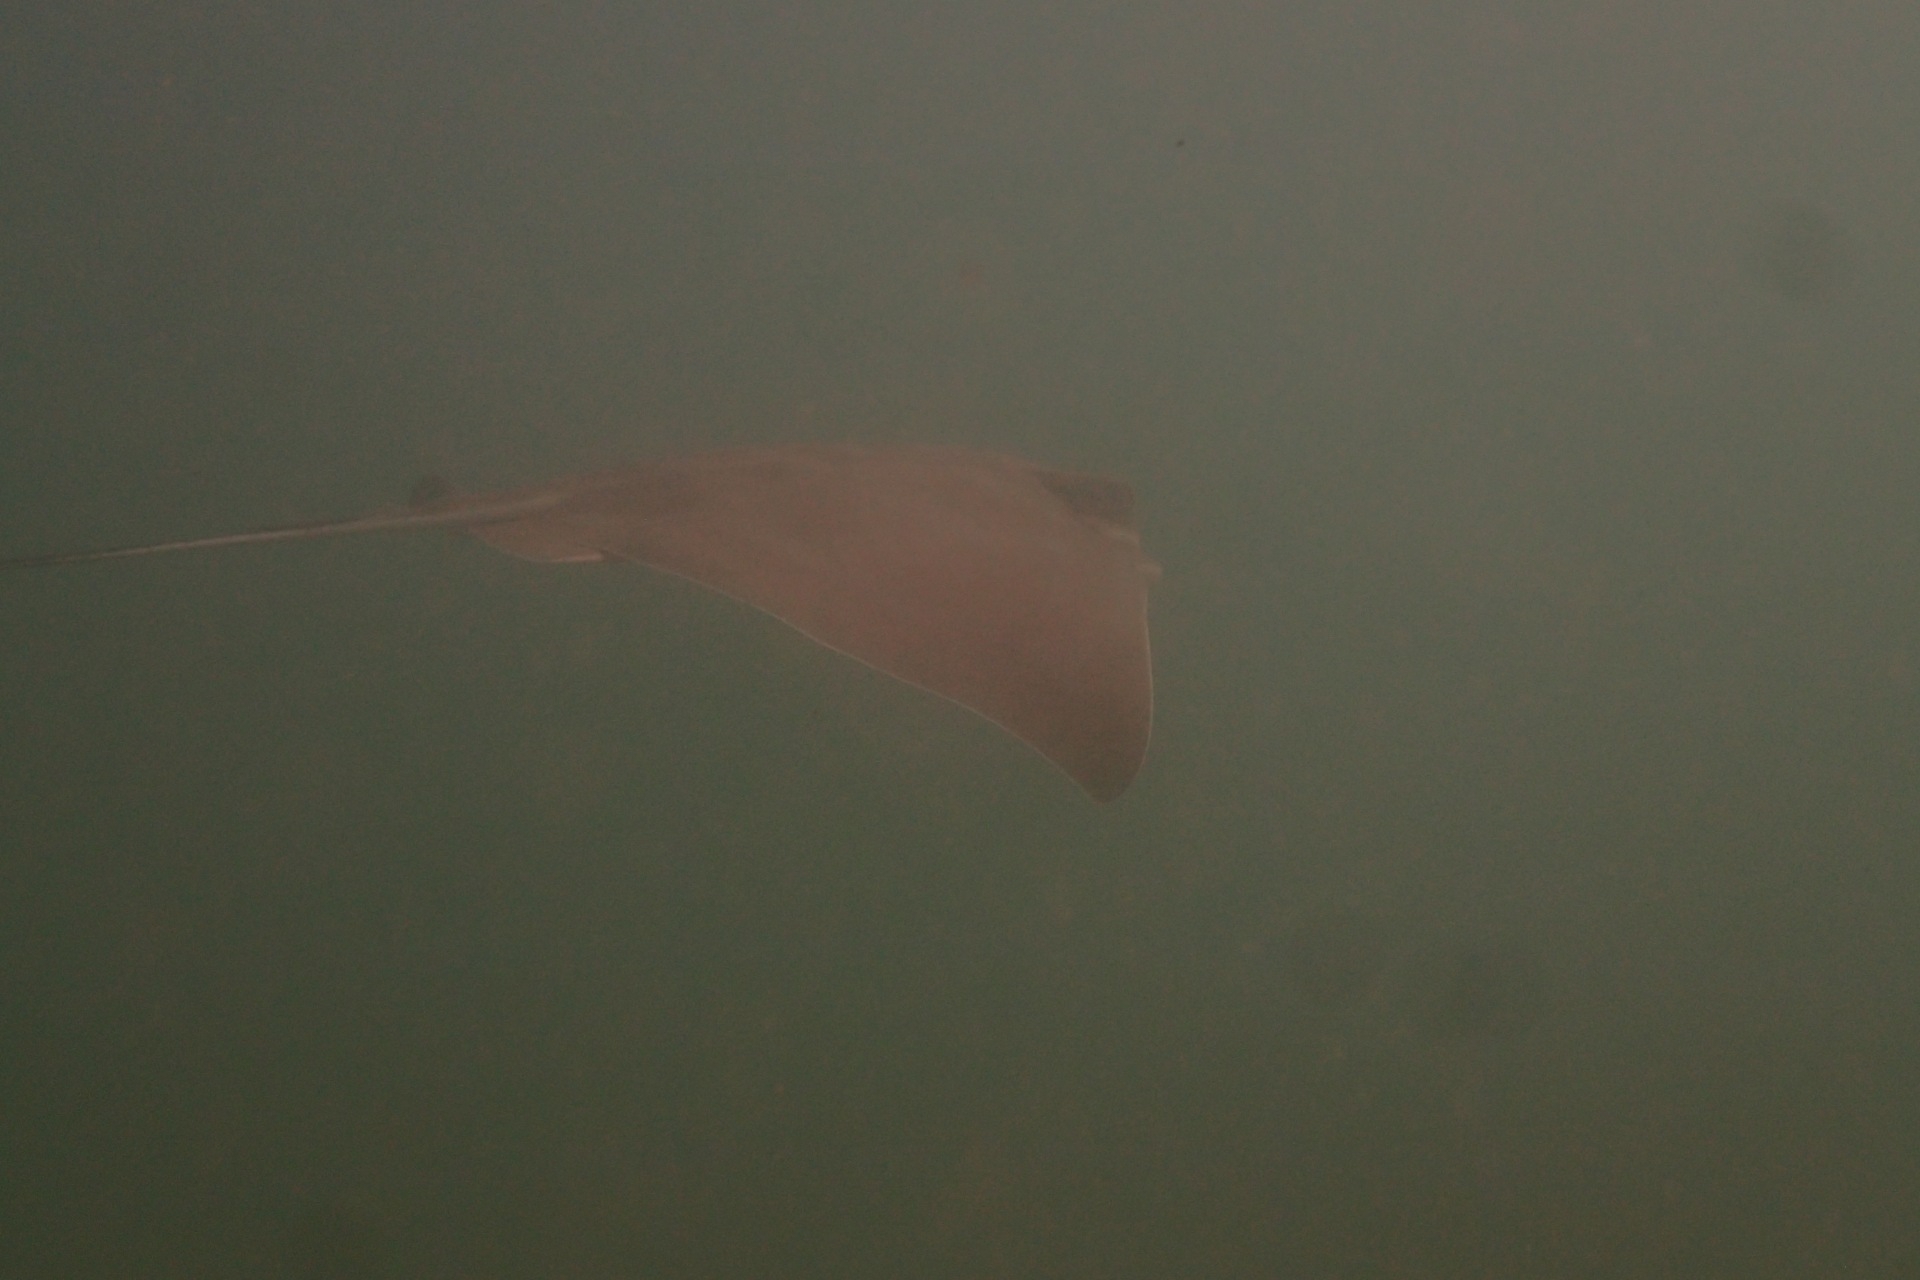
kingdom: Animalia
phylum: Chordata
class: Elasmobranchii
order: Myliobatiformes
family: Myliobatidae
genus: Myliobatis
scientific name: Myliobatis tenuicaudatus
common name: Eagle ray
